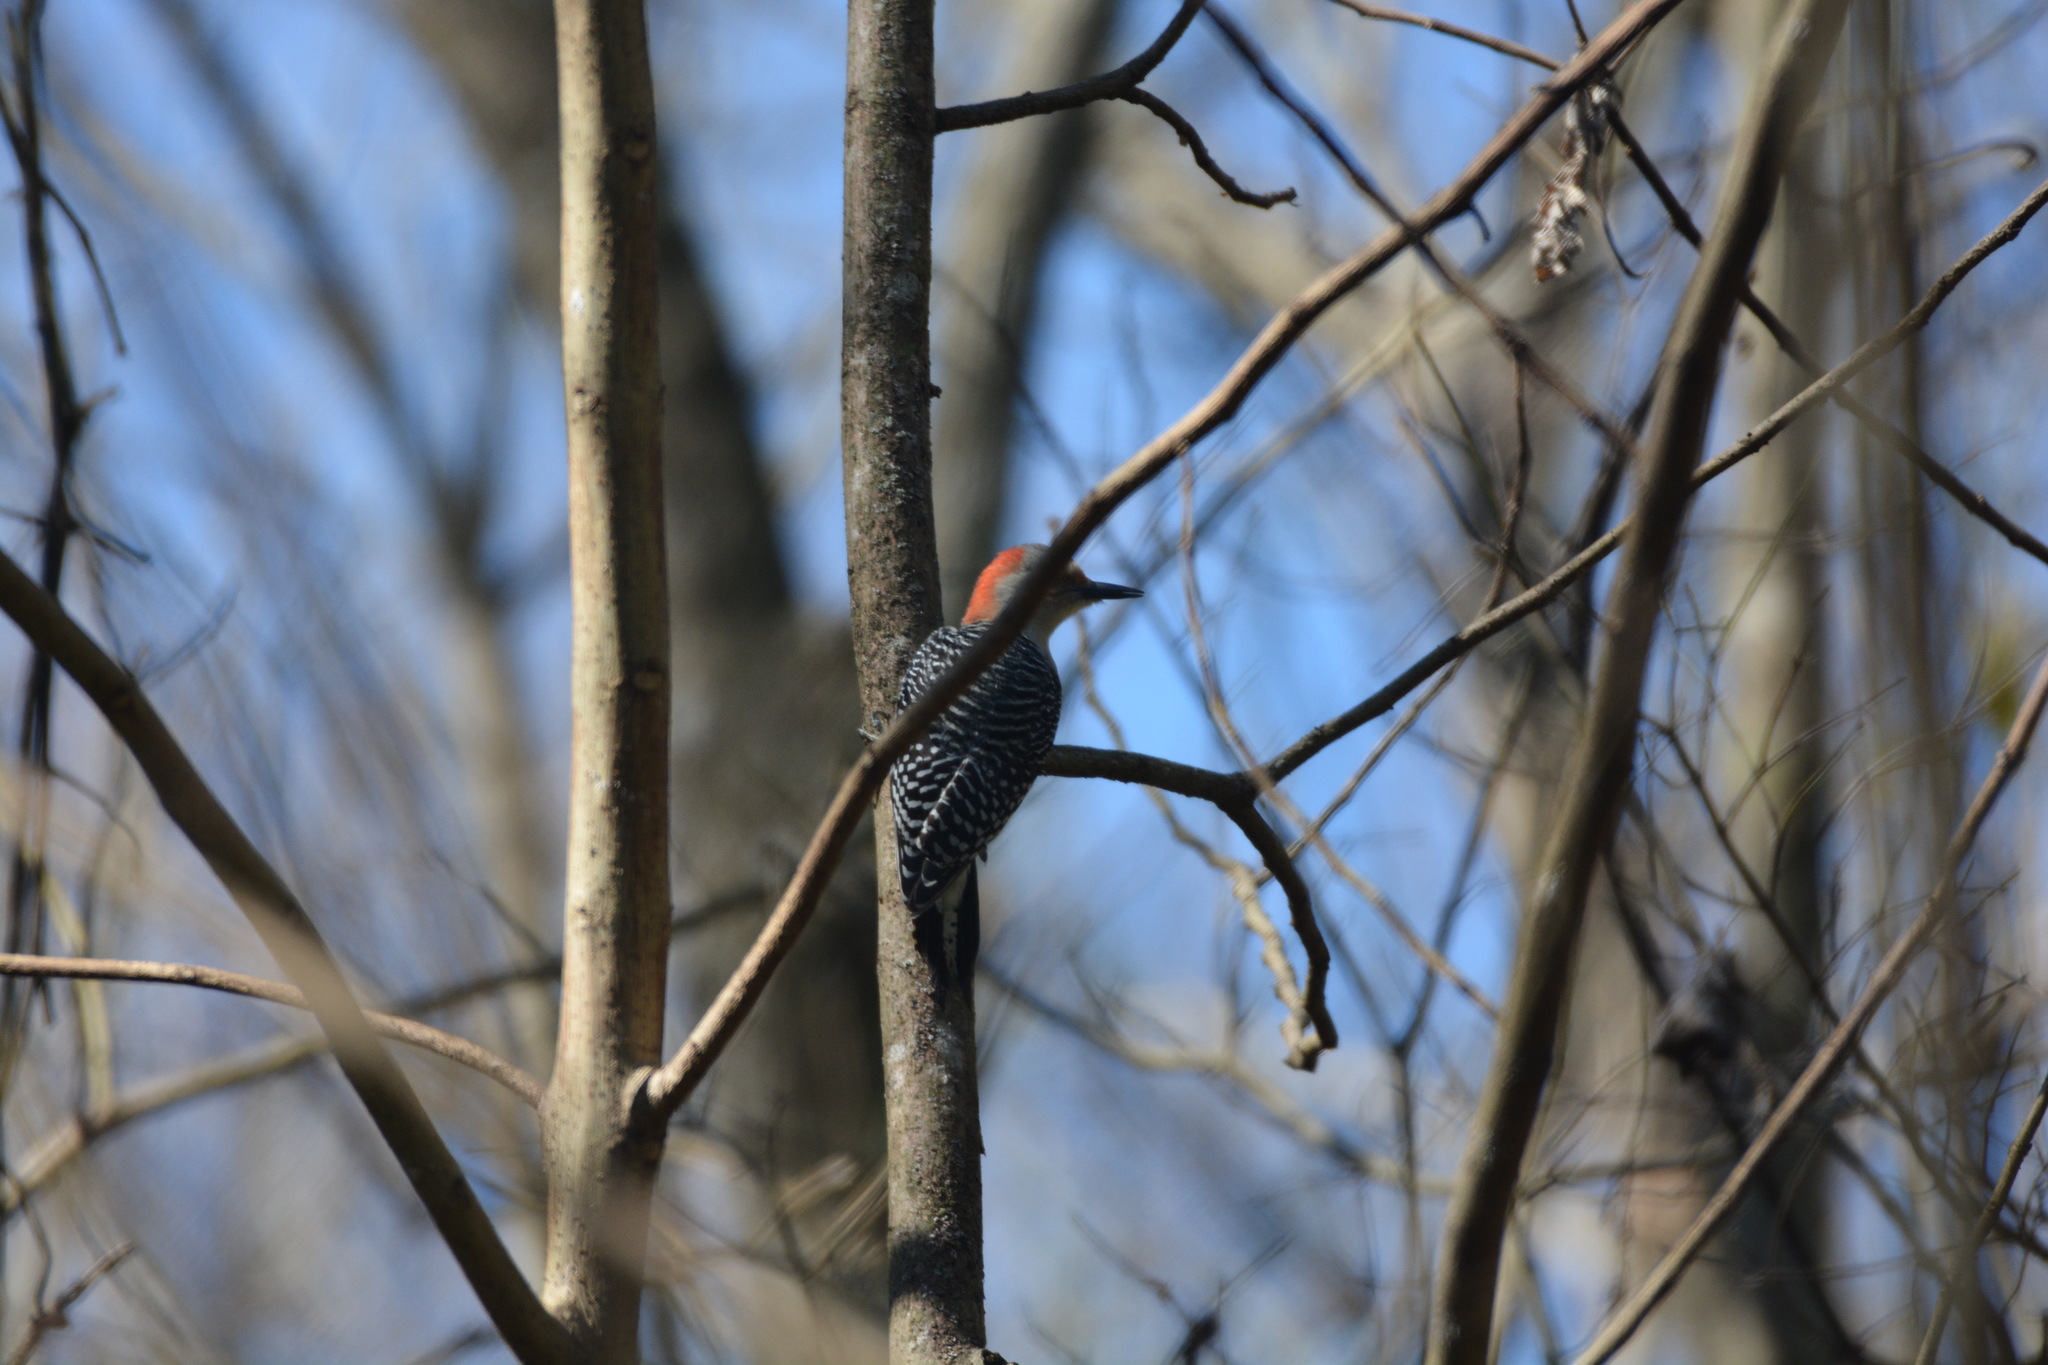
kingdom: Animalia
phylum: Chordata
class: Aves
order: Piciformes
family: Picidae
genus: Melanerpes
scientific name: Melanerpes carolinus
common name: Red-bellied woodpecker
